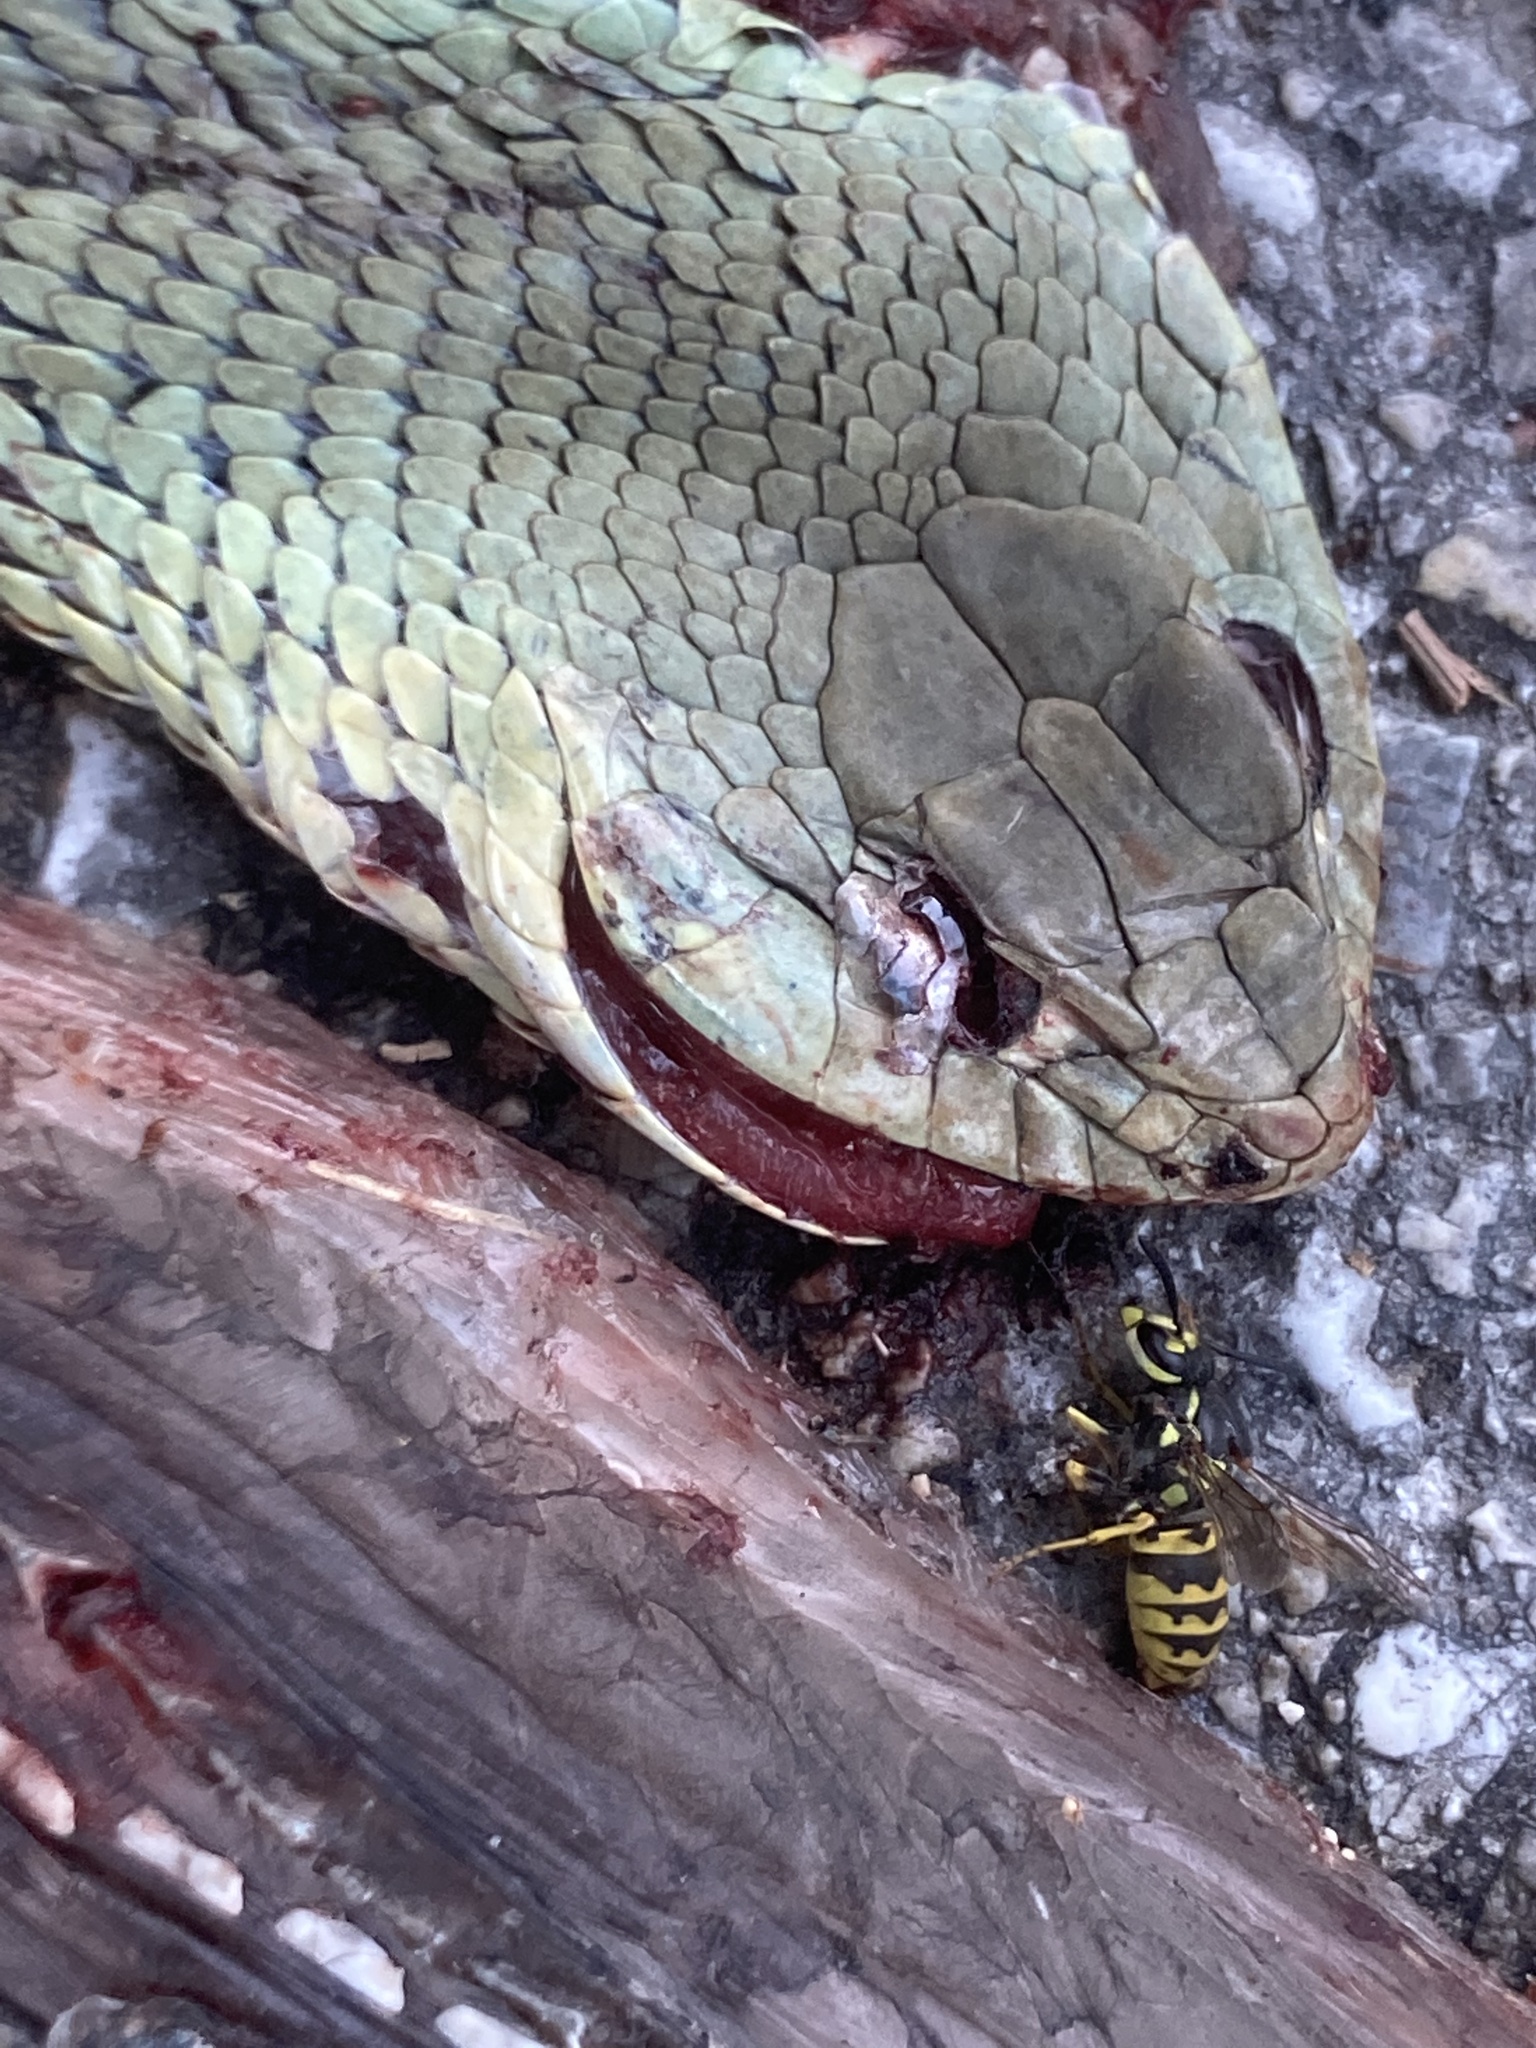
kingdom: Animalia
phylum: Chordata
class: Squamata
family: Psammophiidae
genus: Malpolon
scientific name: Malpolon monspessulanus
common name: Montpellier snake
